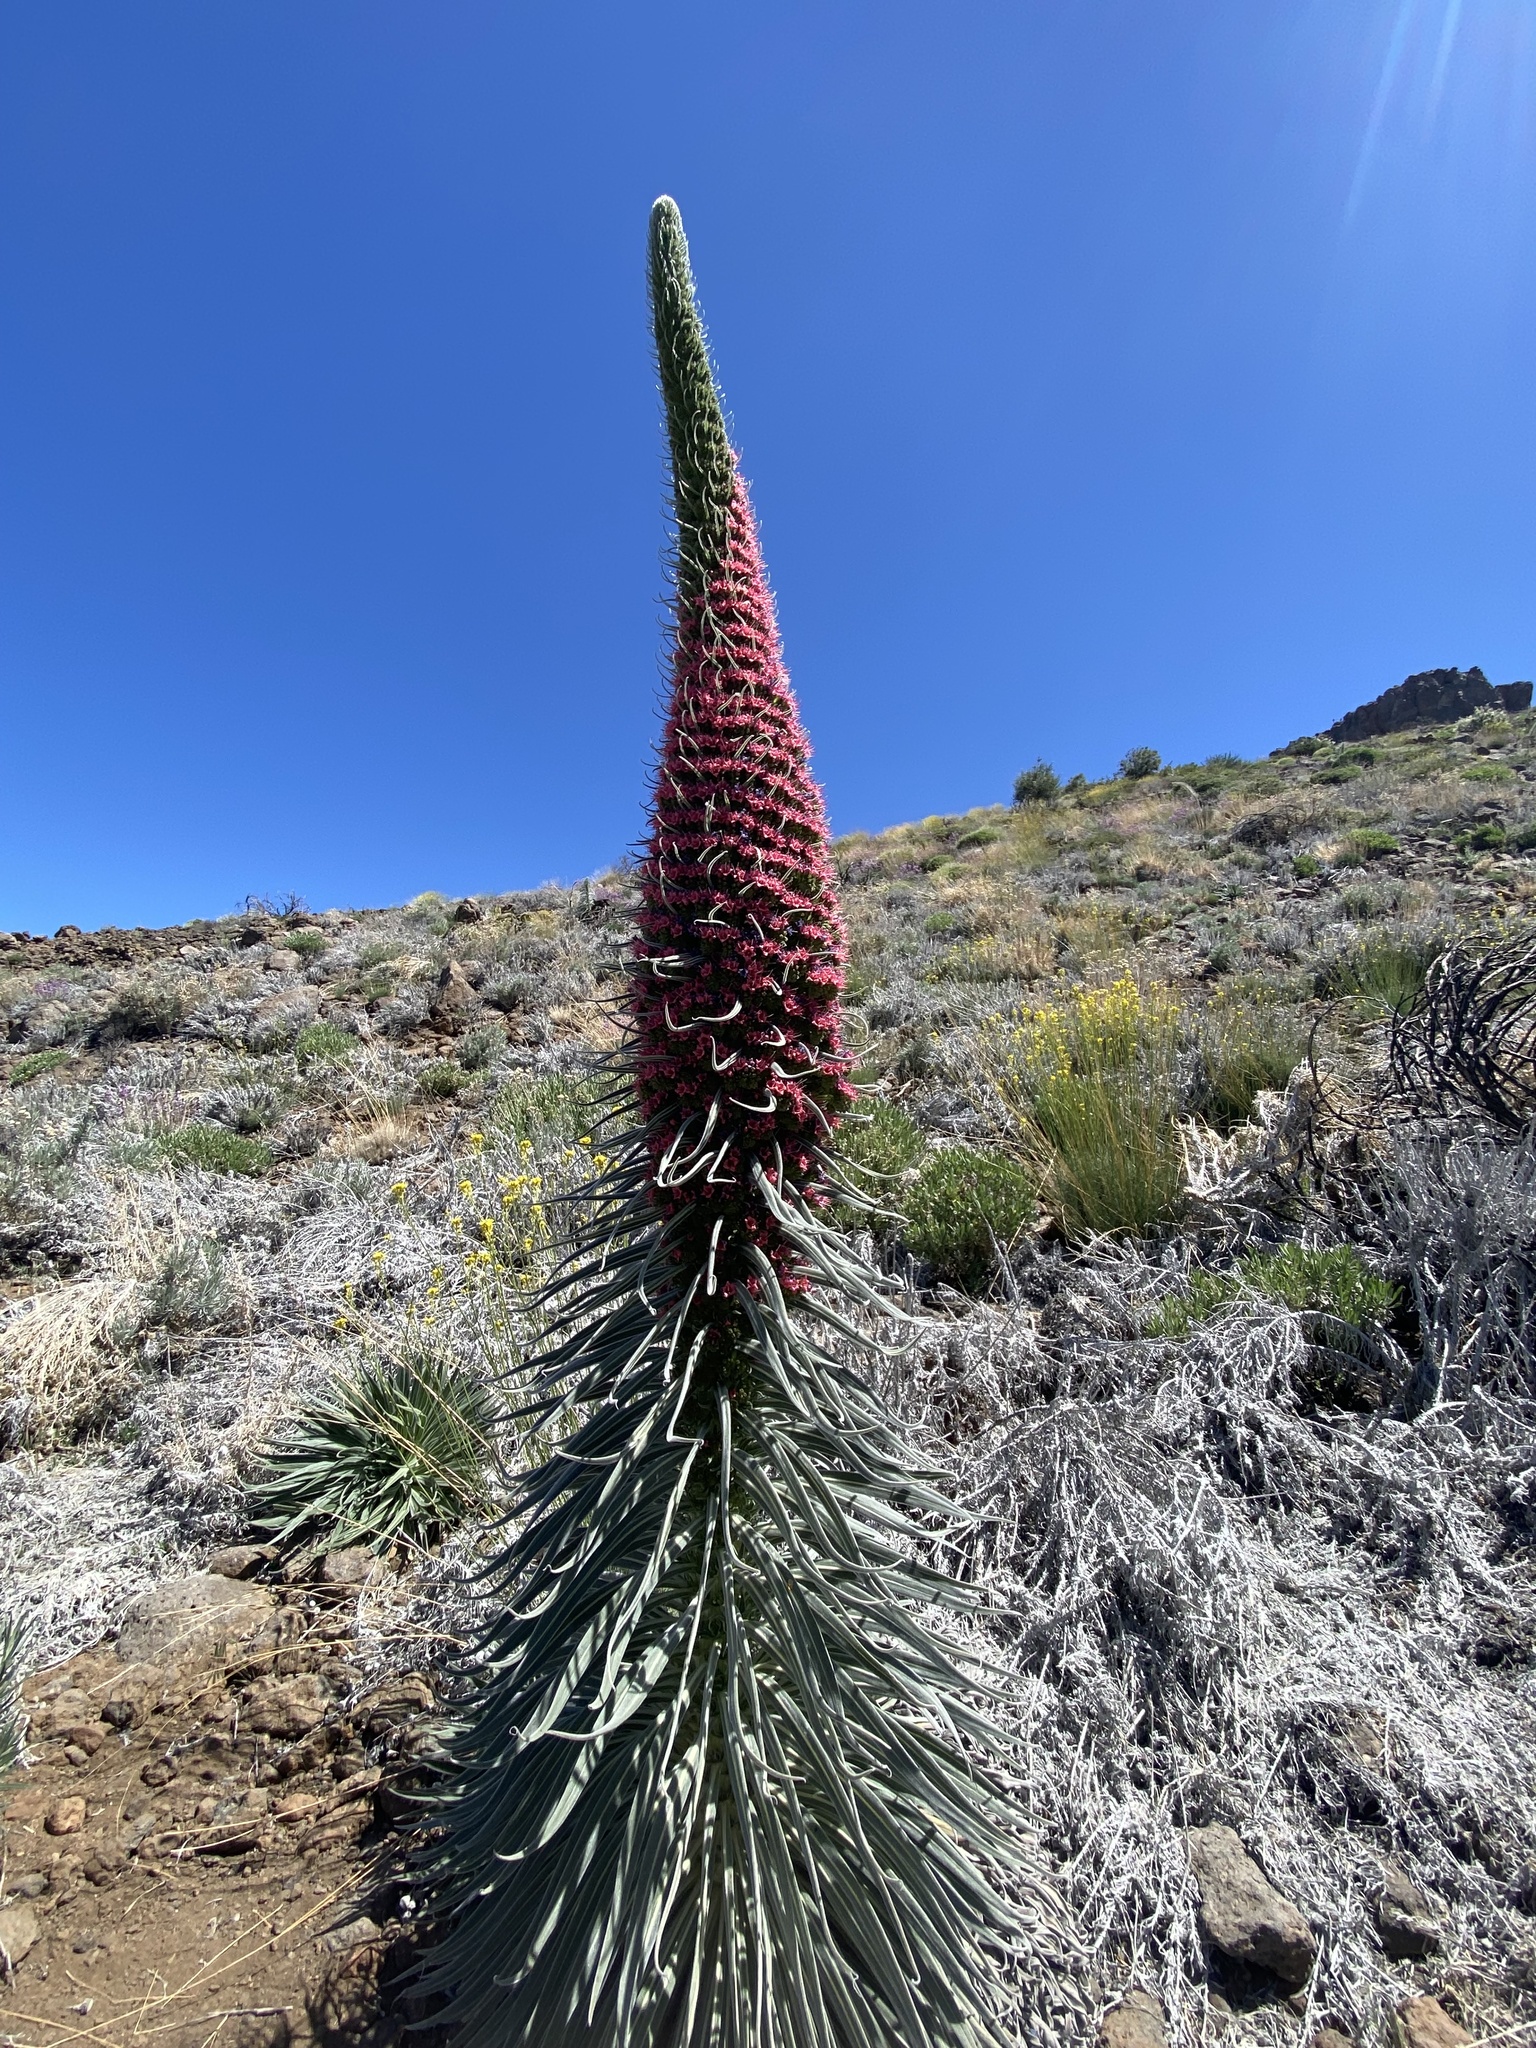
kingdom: Plantae
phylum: Tracheophyta
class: Magnoliopsida
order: Boraginales
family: Boraginaceae
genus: Echium
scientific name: Echium wildpretii
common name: Tower-of-jewels
